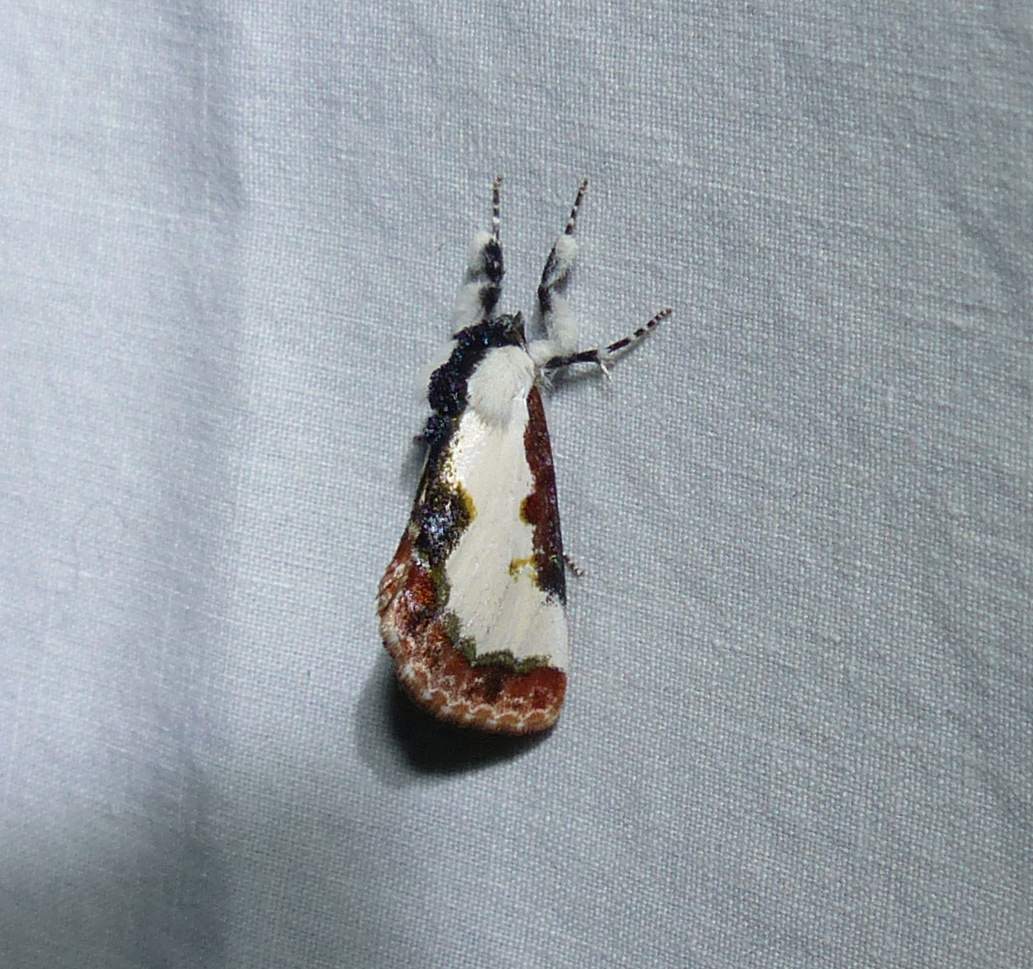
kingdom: Animalia
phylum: Arthropoda
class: Insecta
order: Lepidoptera
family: Noctuidae
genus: Eudryas
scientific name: Eudryas unio
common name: Pearly wood-nymph
